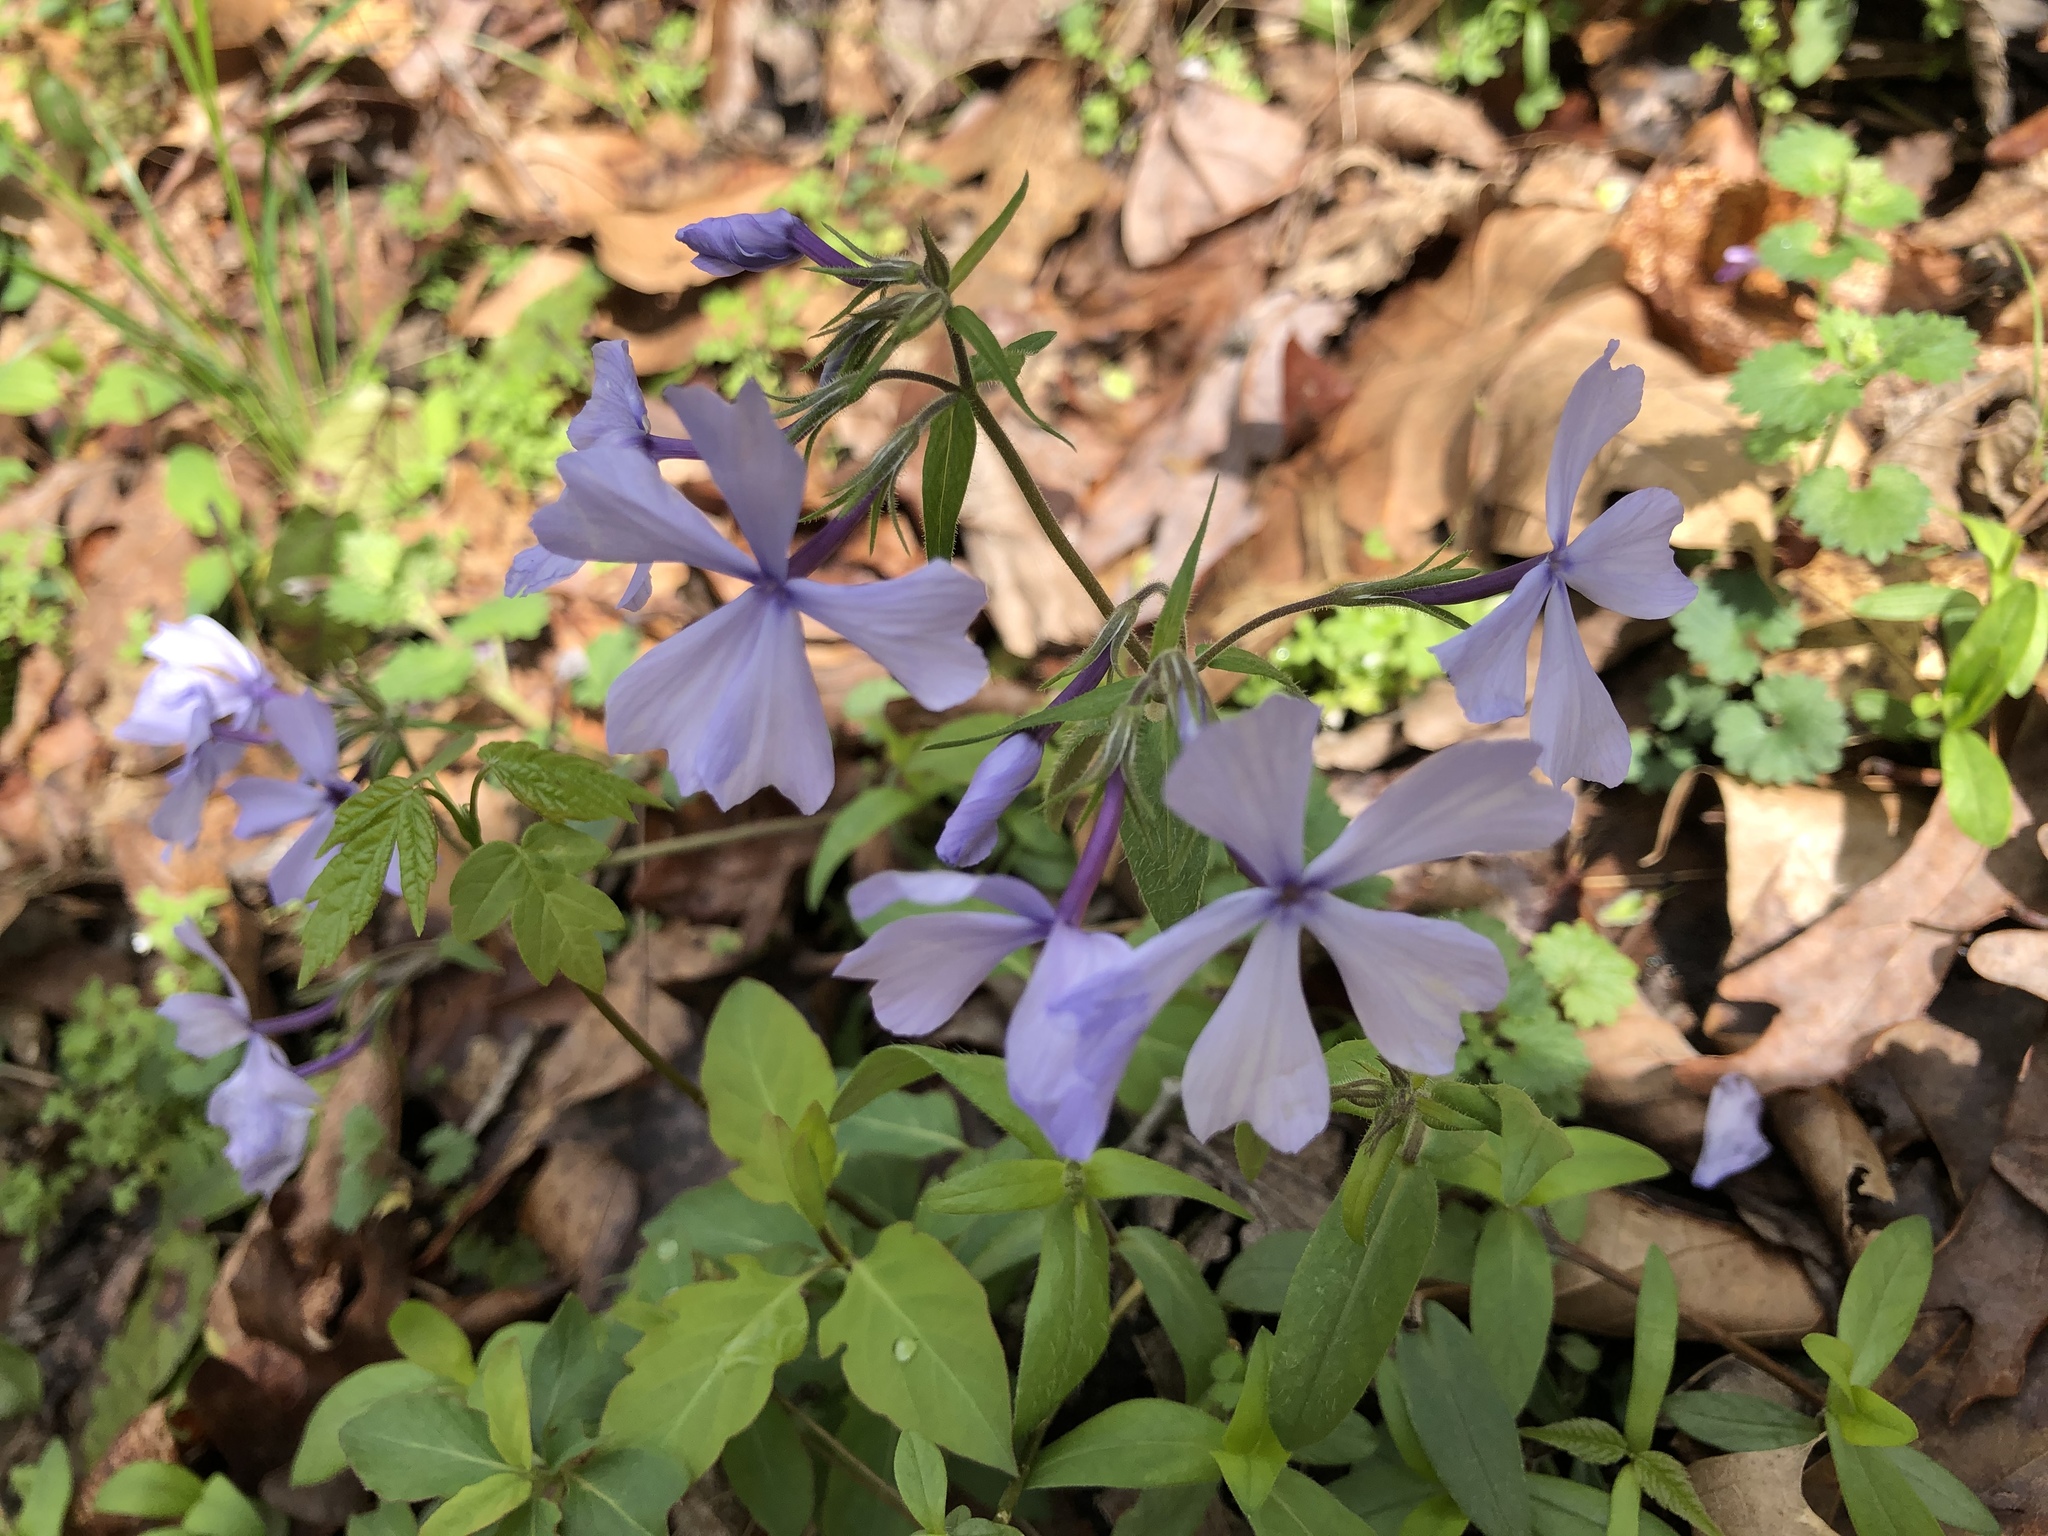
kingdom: Plantae
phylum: Tracheophyta
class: Magnoliopsida
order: Ericales
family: Polemoniaceae
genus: Phlox
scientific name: Phlox divaricata
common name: Blue phlox
